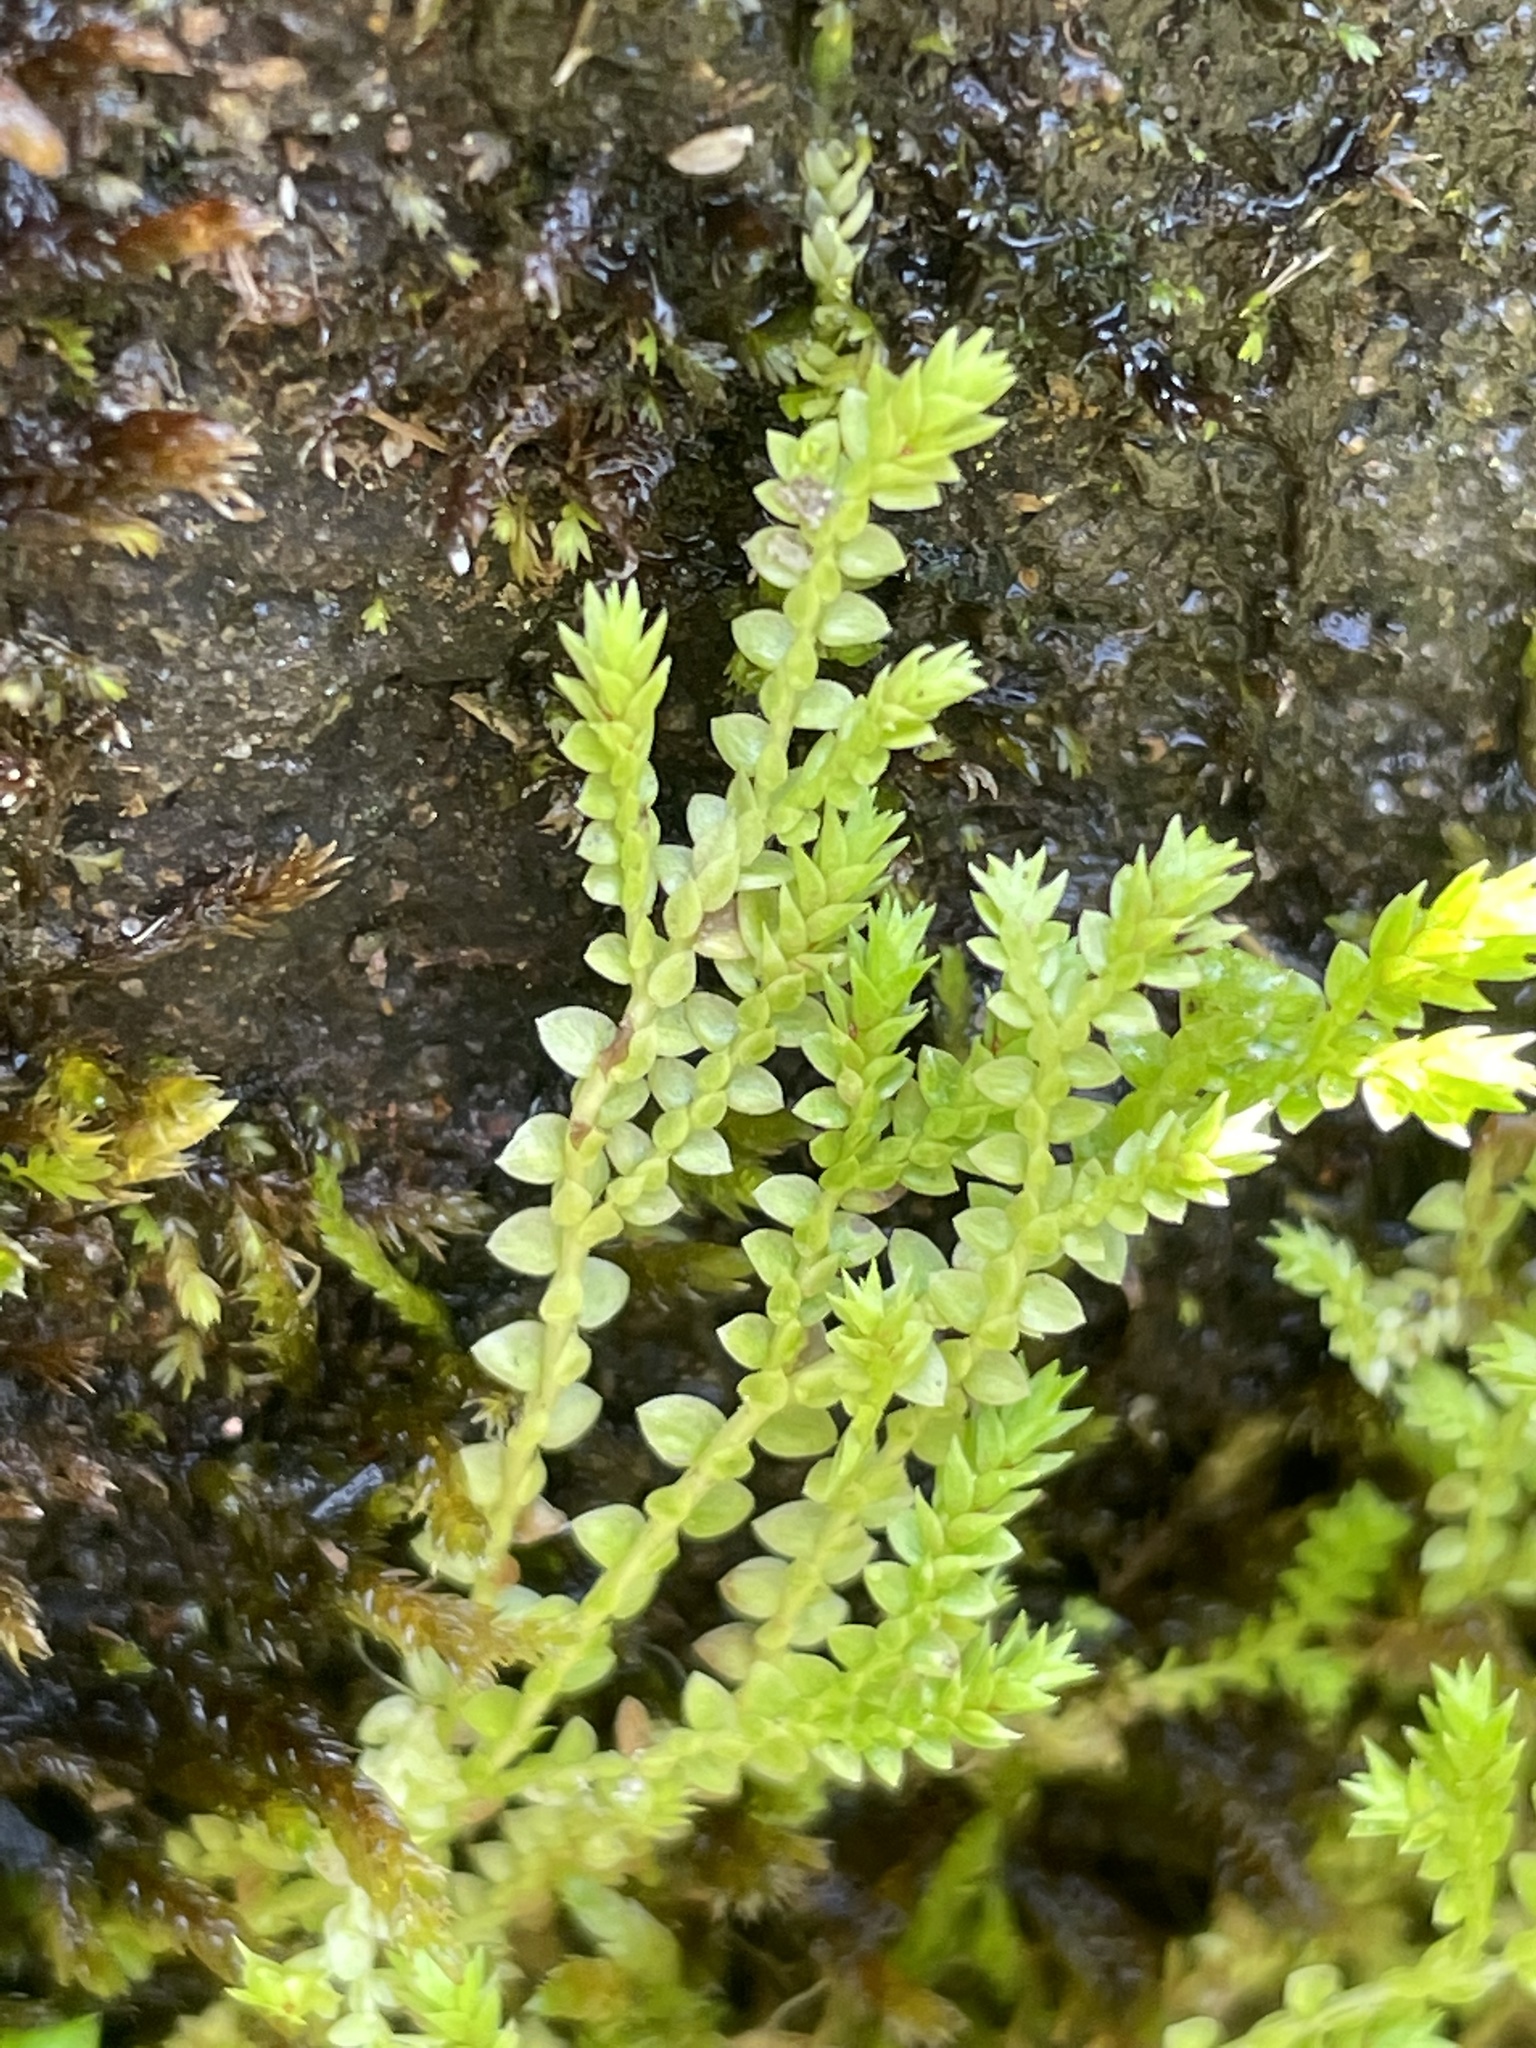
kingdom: Plantae
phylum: Tracheophyta
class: Lycopodiopsida
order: Selaginellales
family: Selaginellaceae
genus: Selaginella
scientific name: Selaginella apoda
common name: Creeping spikemoss
